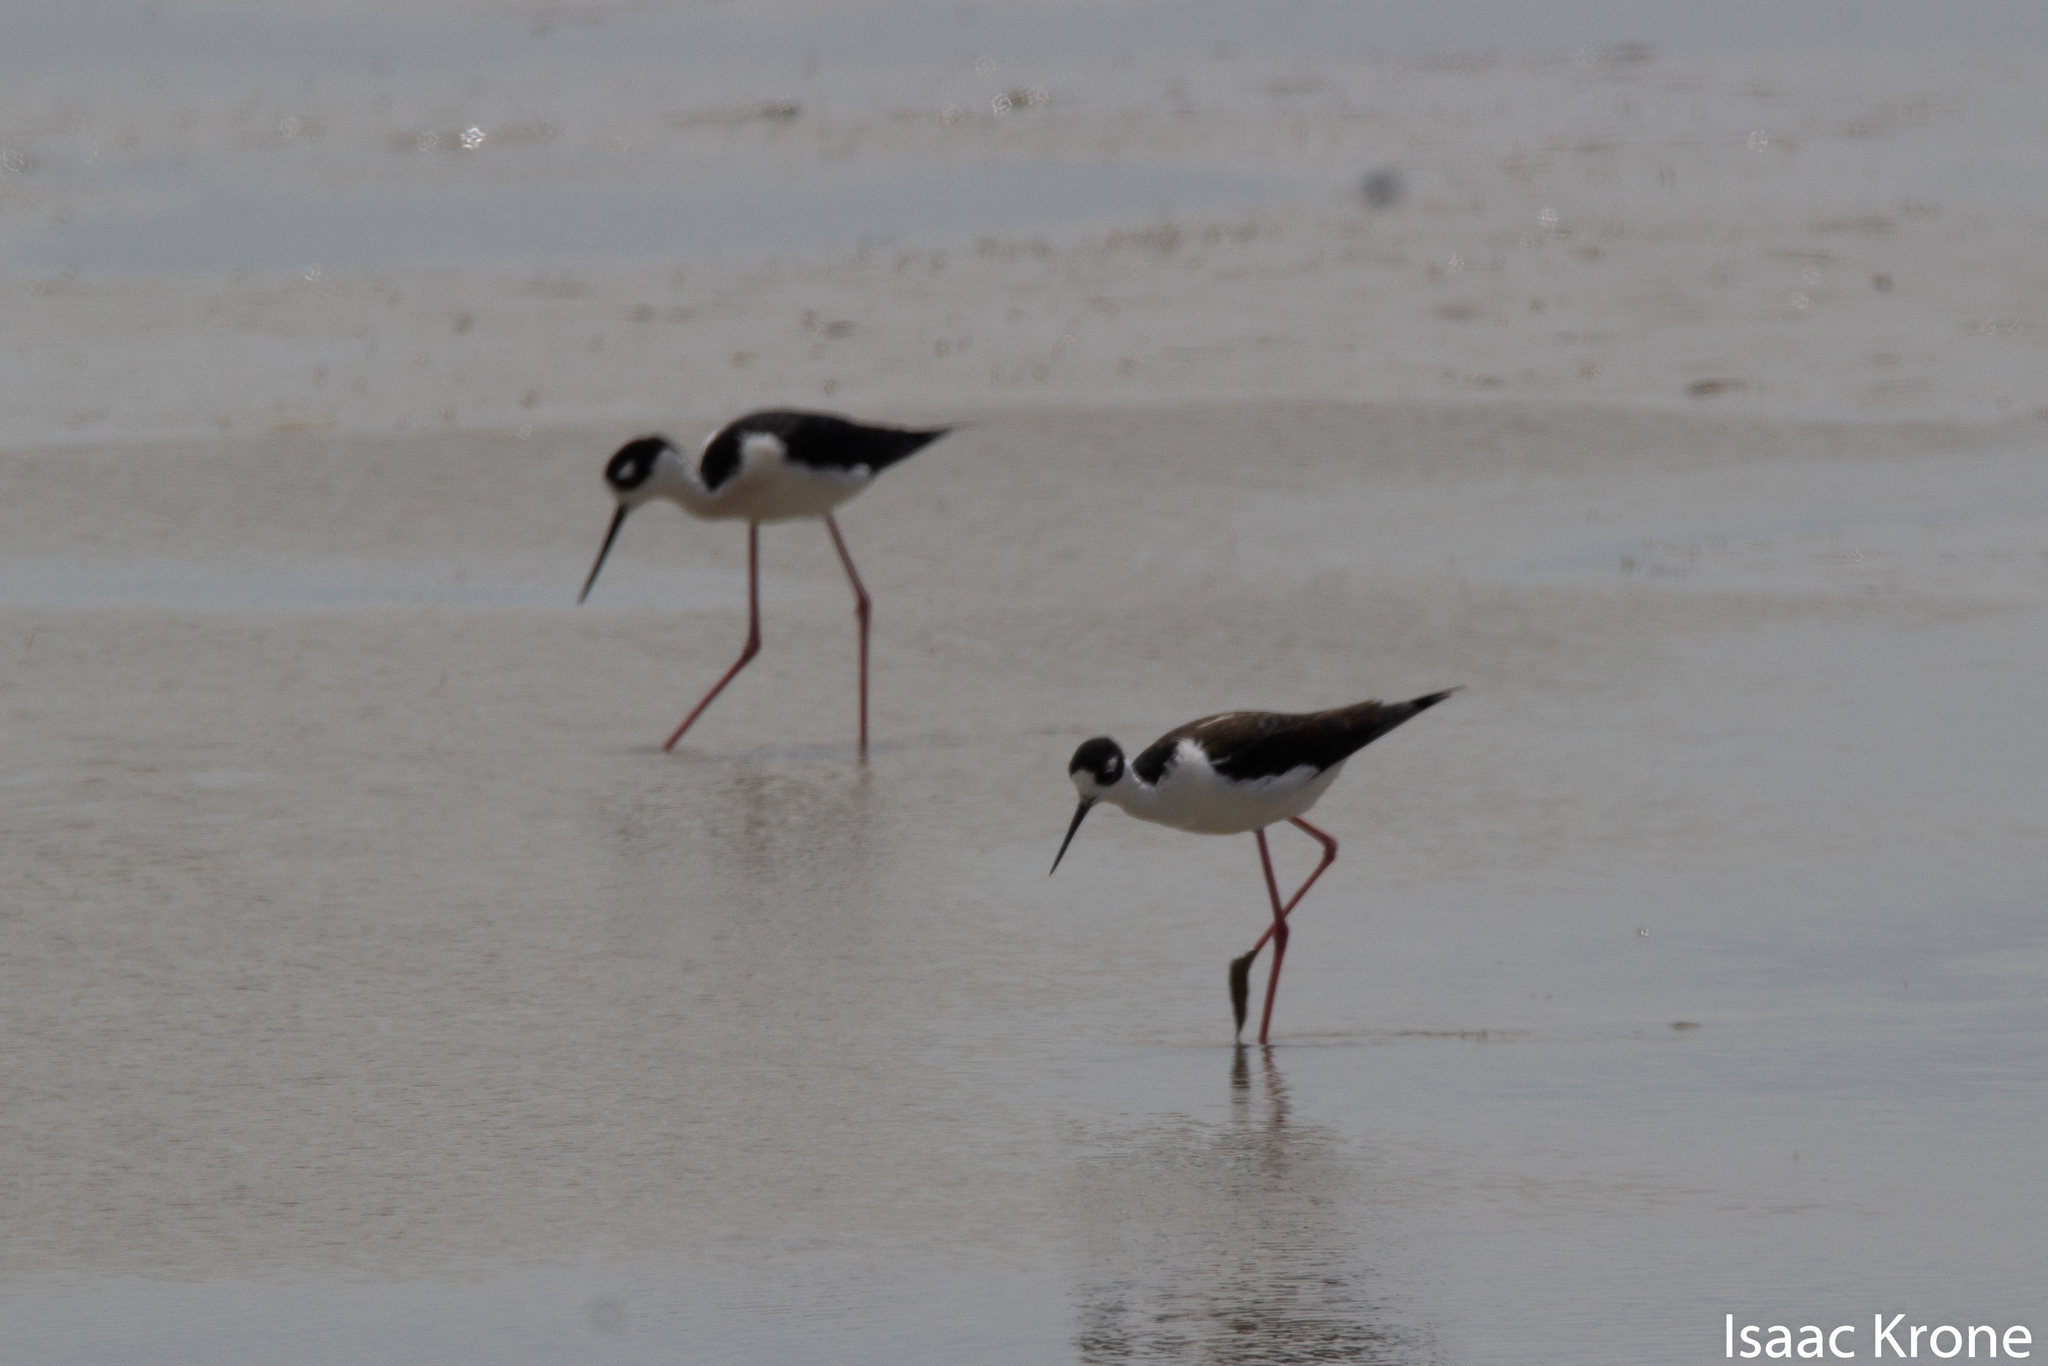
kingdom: Animalia
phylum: Chordata
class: Aves
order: Charadriiformes
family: Recurvirostridae
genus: Himantopus
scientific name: Himantopus mexicanus
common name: Black-necked stilt
